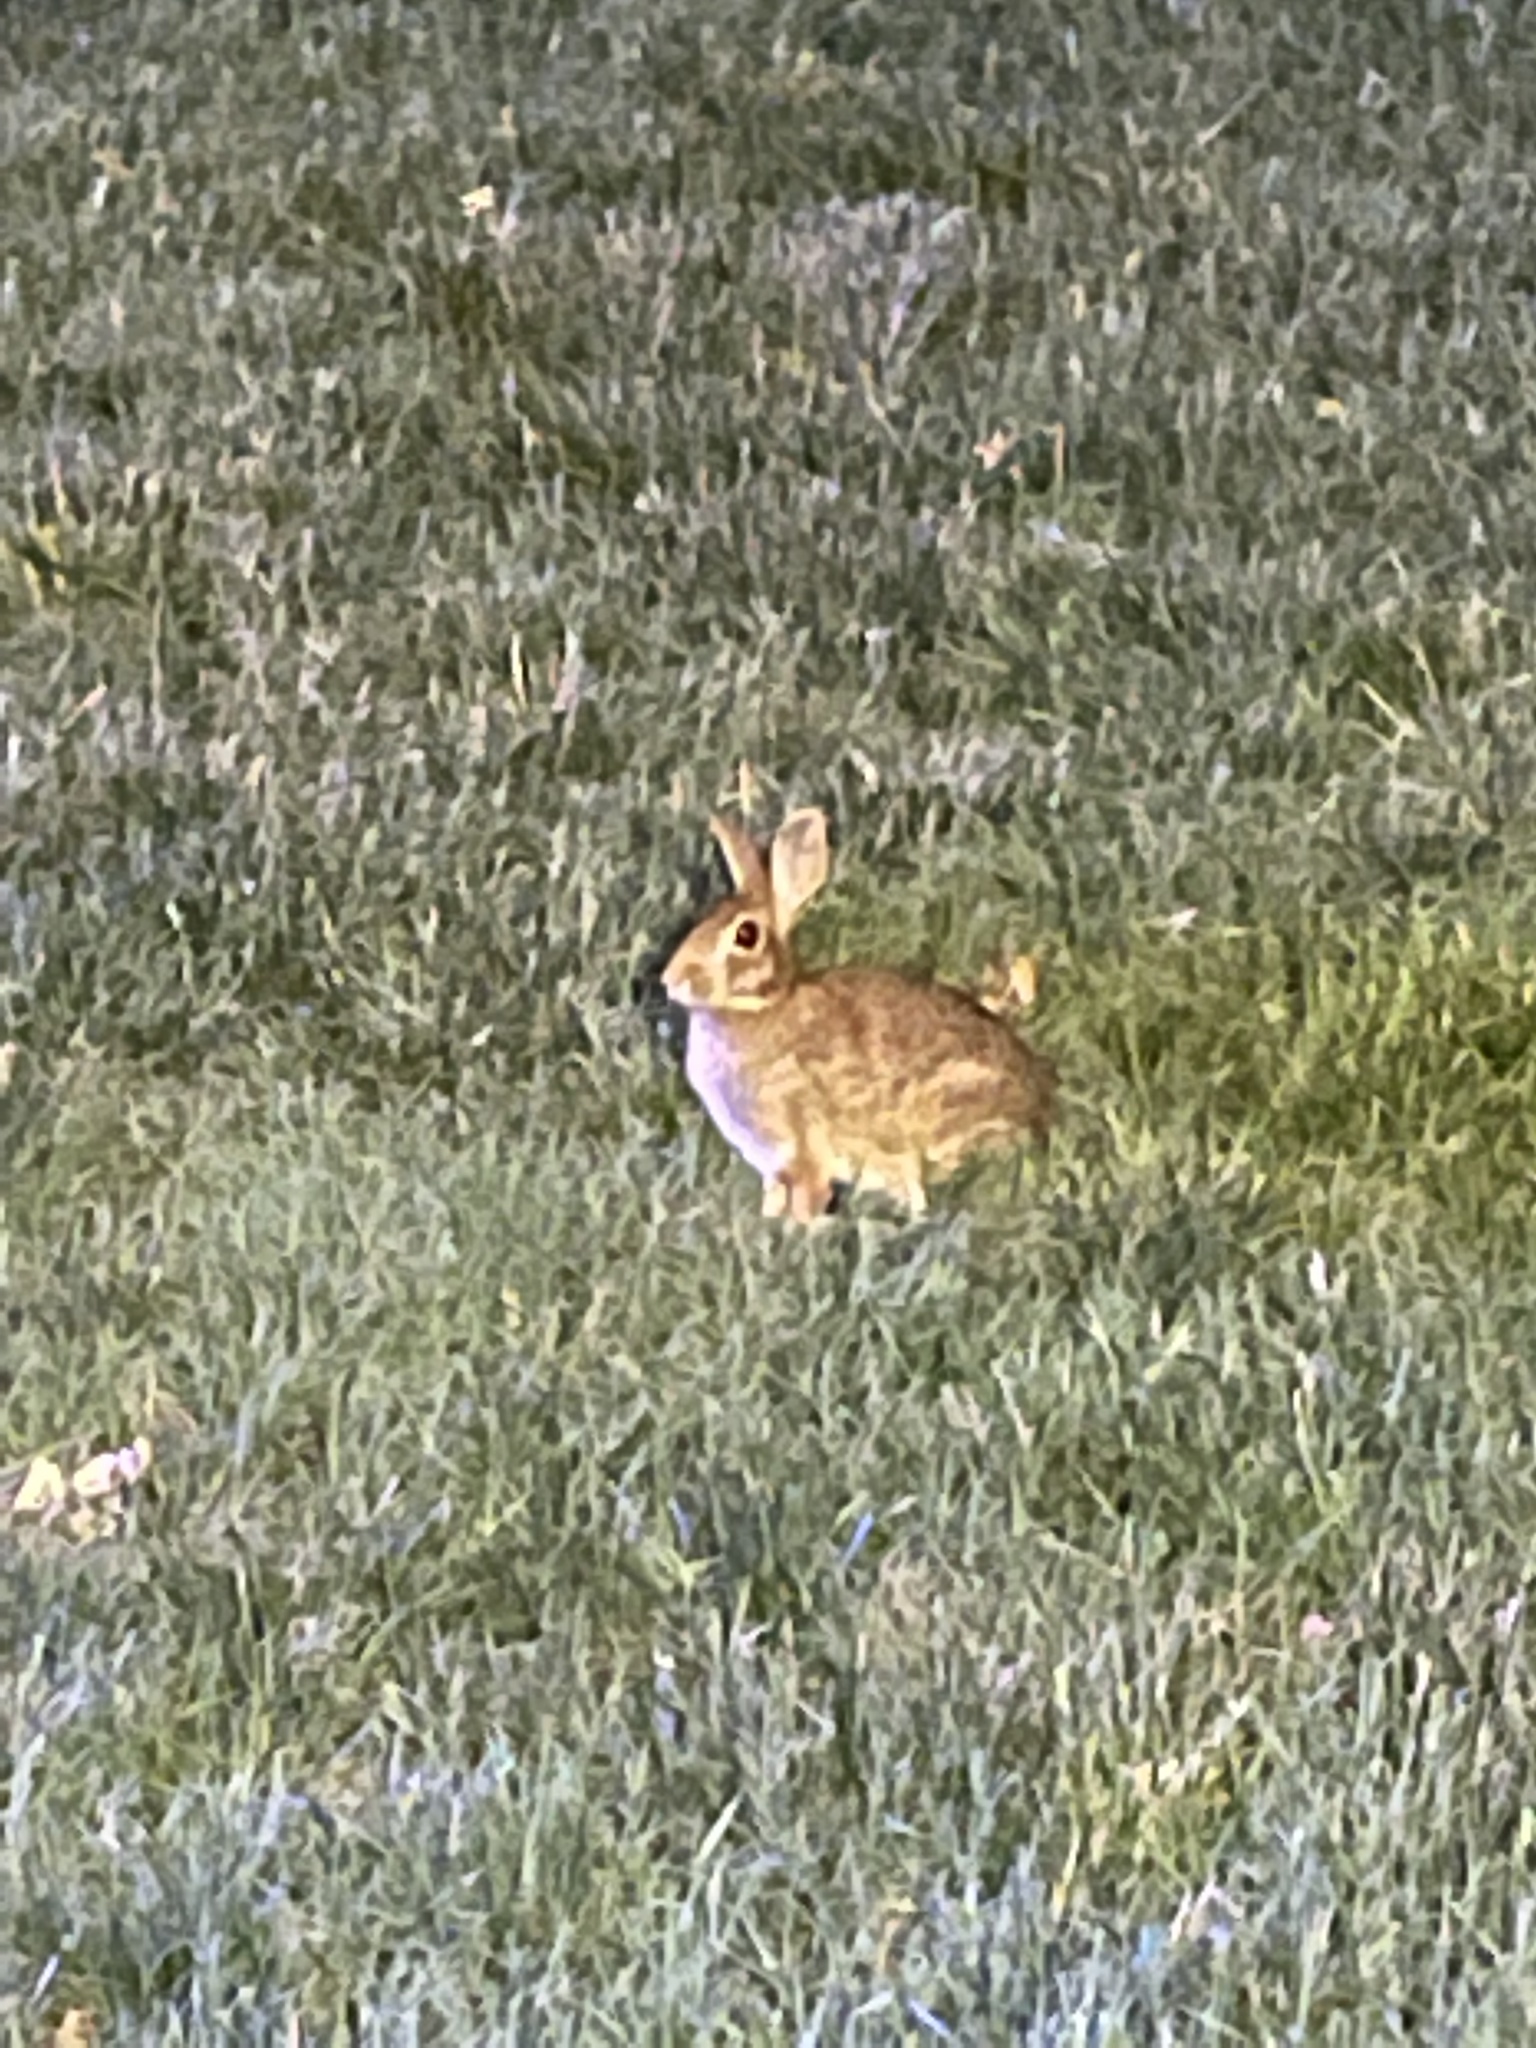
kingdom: Animalia
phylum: Chordata
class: Mammalia
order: Lagomorpha
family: Leporidae
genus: Sylvilagus
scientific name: Sylvilagus floridanus
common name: Eastern cottontail
